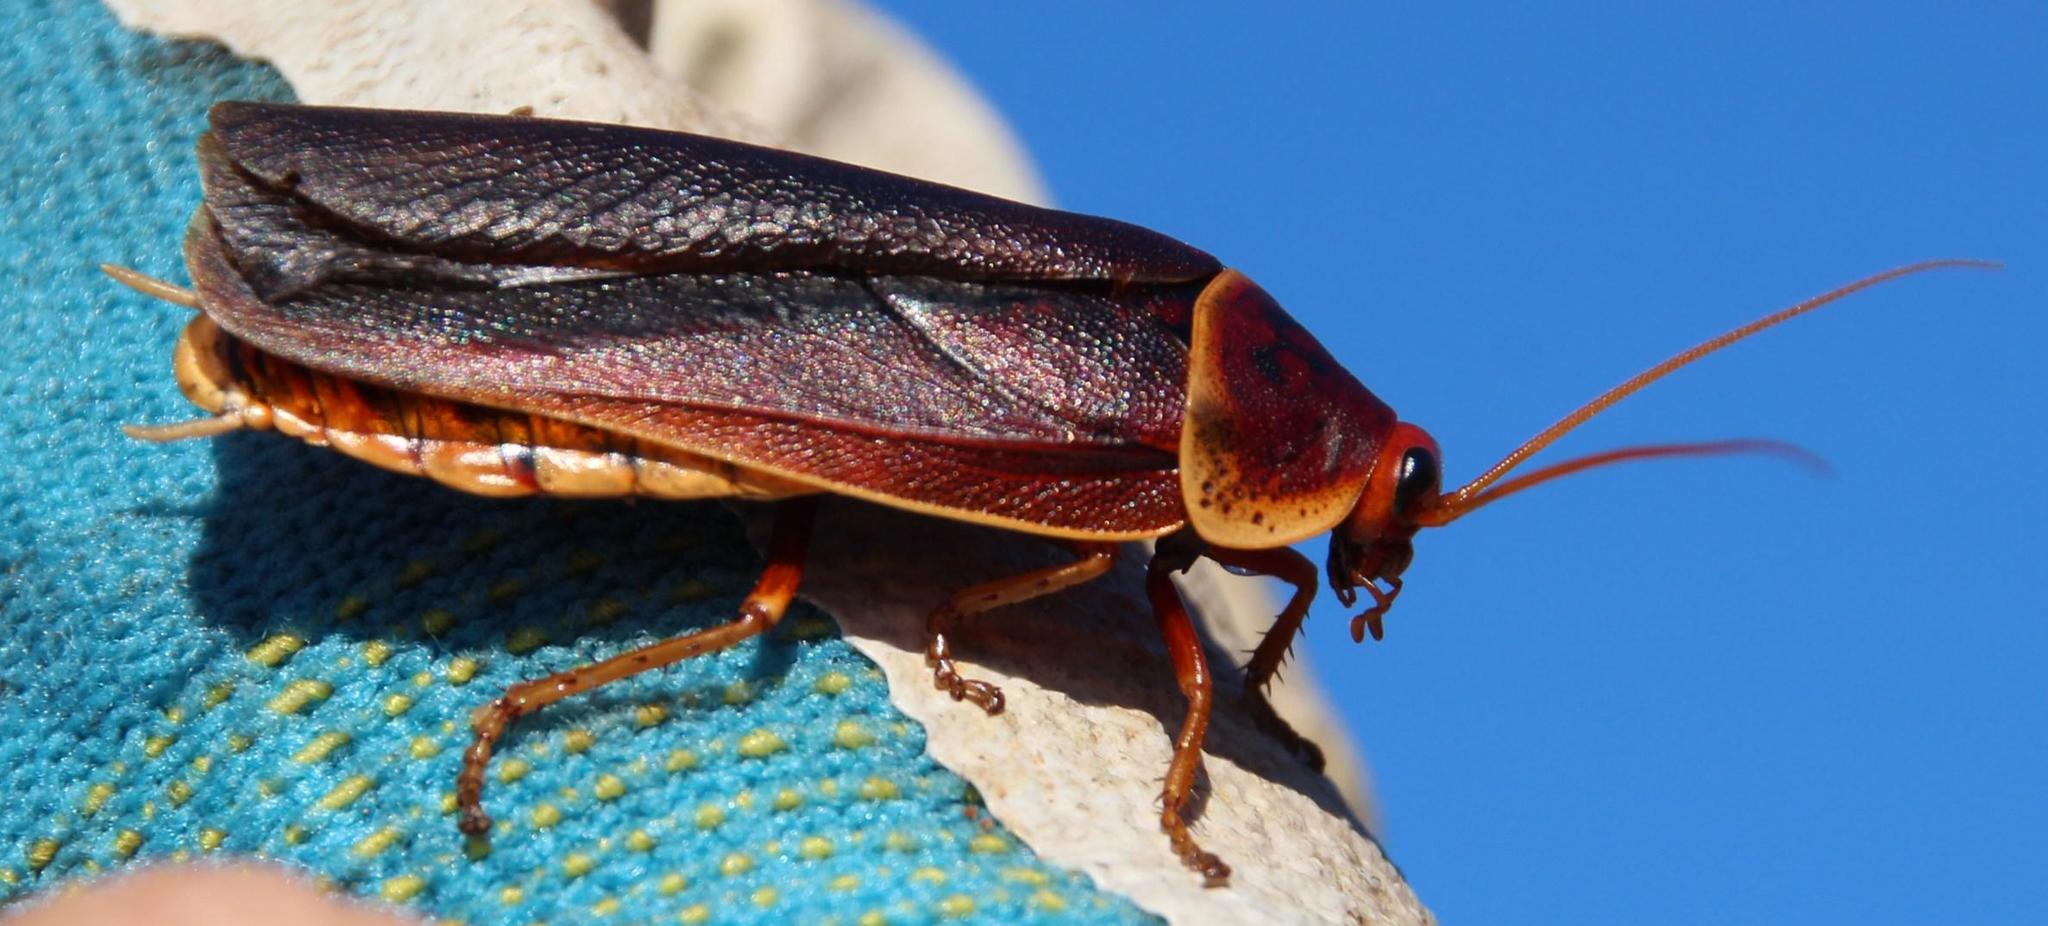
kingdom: Animalia
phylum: Arthropoda
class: Insecta
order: Blattodea
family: Blaberidae
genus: Aptera
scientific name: Aptera fusca
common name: Cape mountain cockroach
